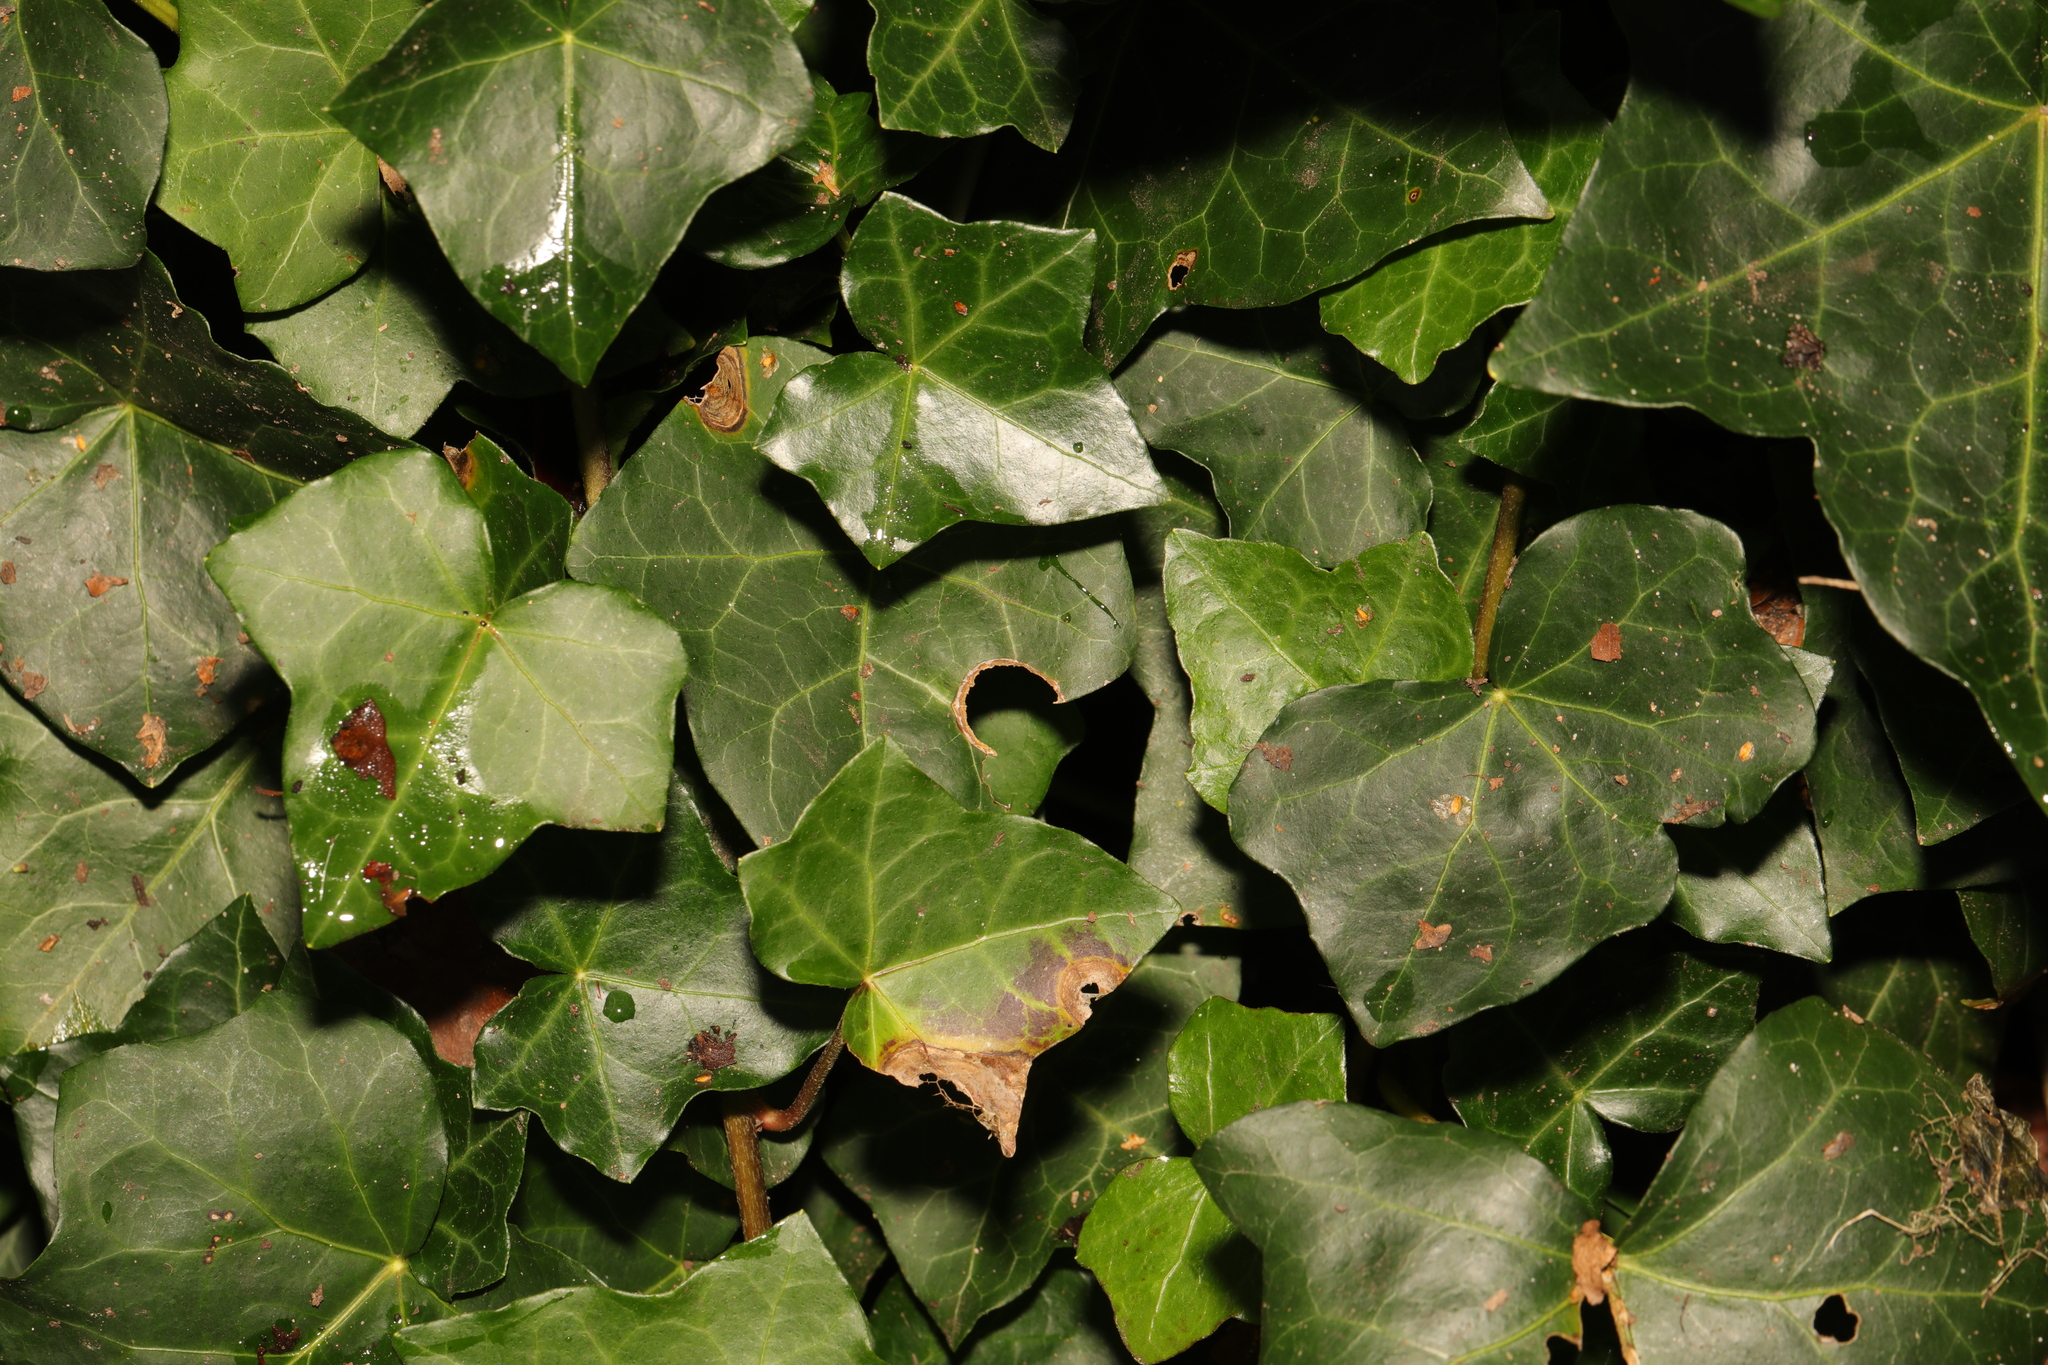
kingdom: Plantae
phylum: Tracheophyta
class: Magnoliopsida
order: Apiales
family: Araliaceae
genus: Hedera
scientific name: Hedera helix
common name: Ivy
